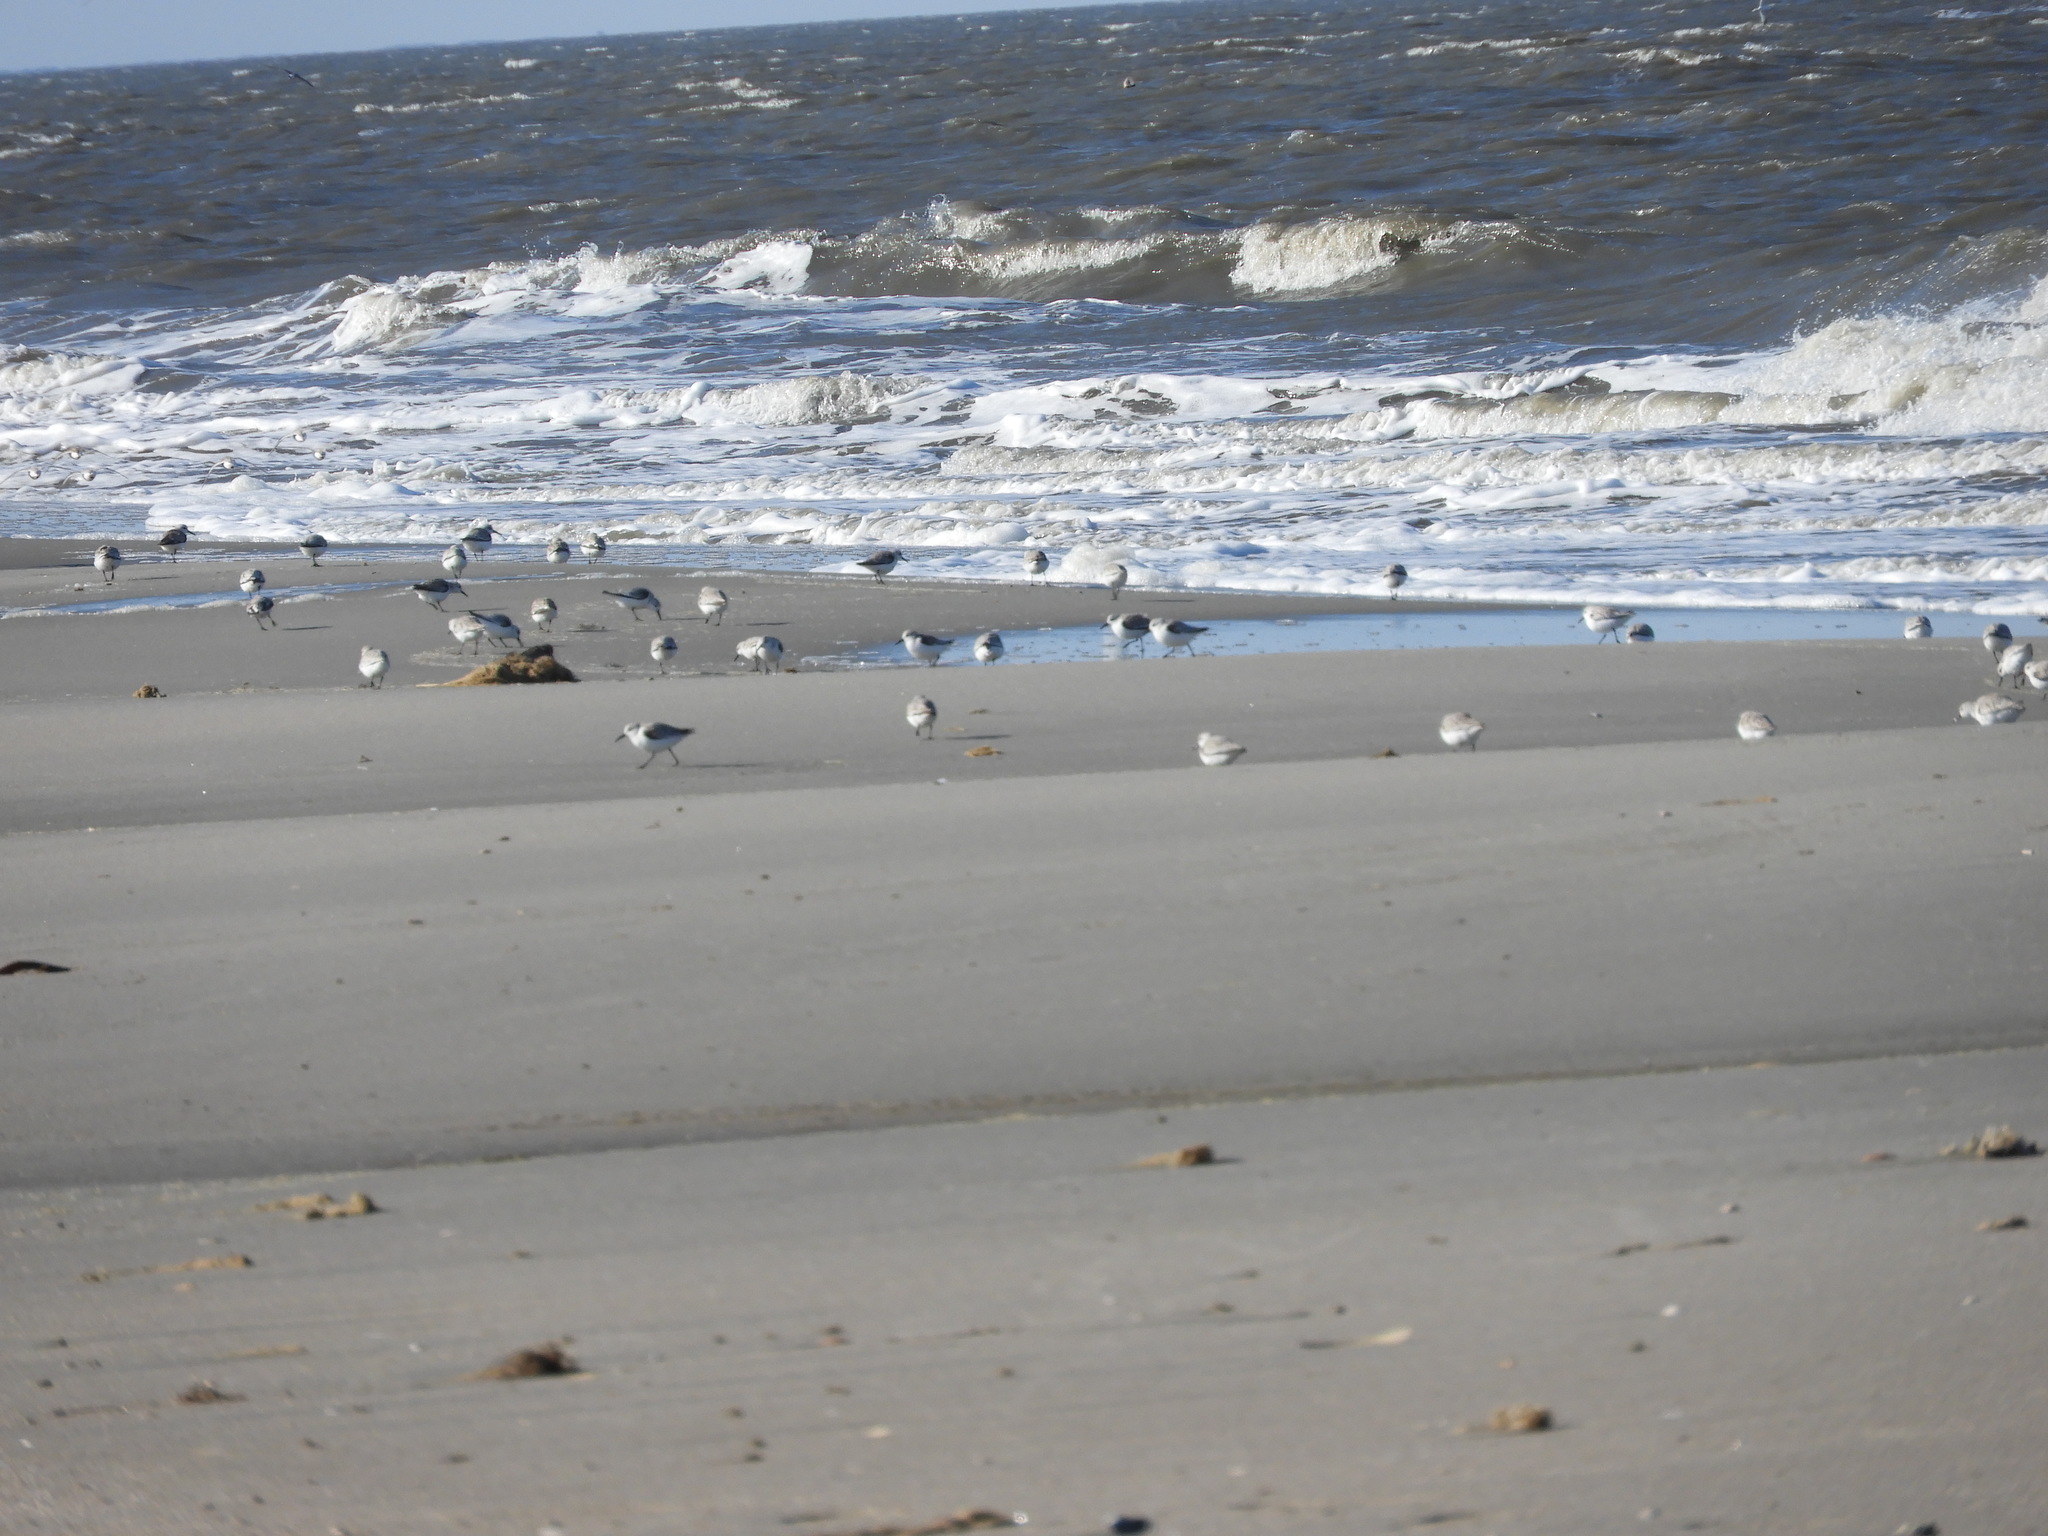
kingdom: Animalia
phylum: Chordata
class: Aves
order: Charadriiformes
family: Scolopacidae
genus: Calidris
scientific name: Calidris alba
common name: Sanderling
